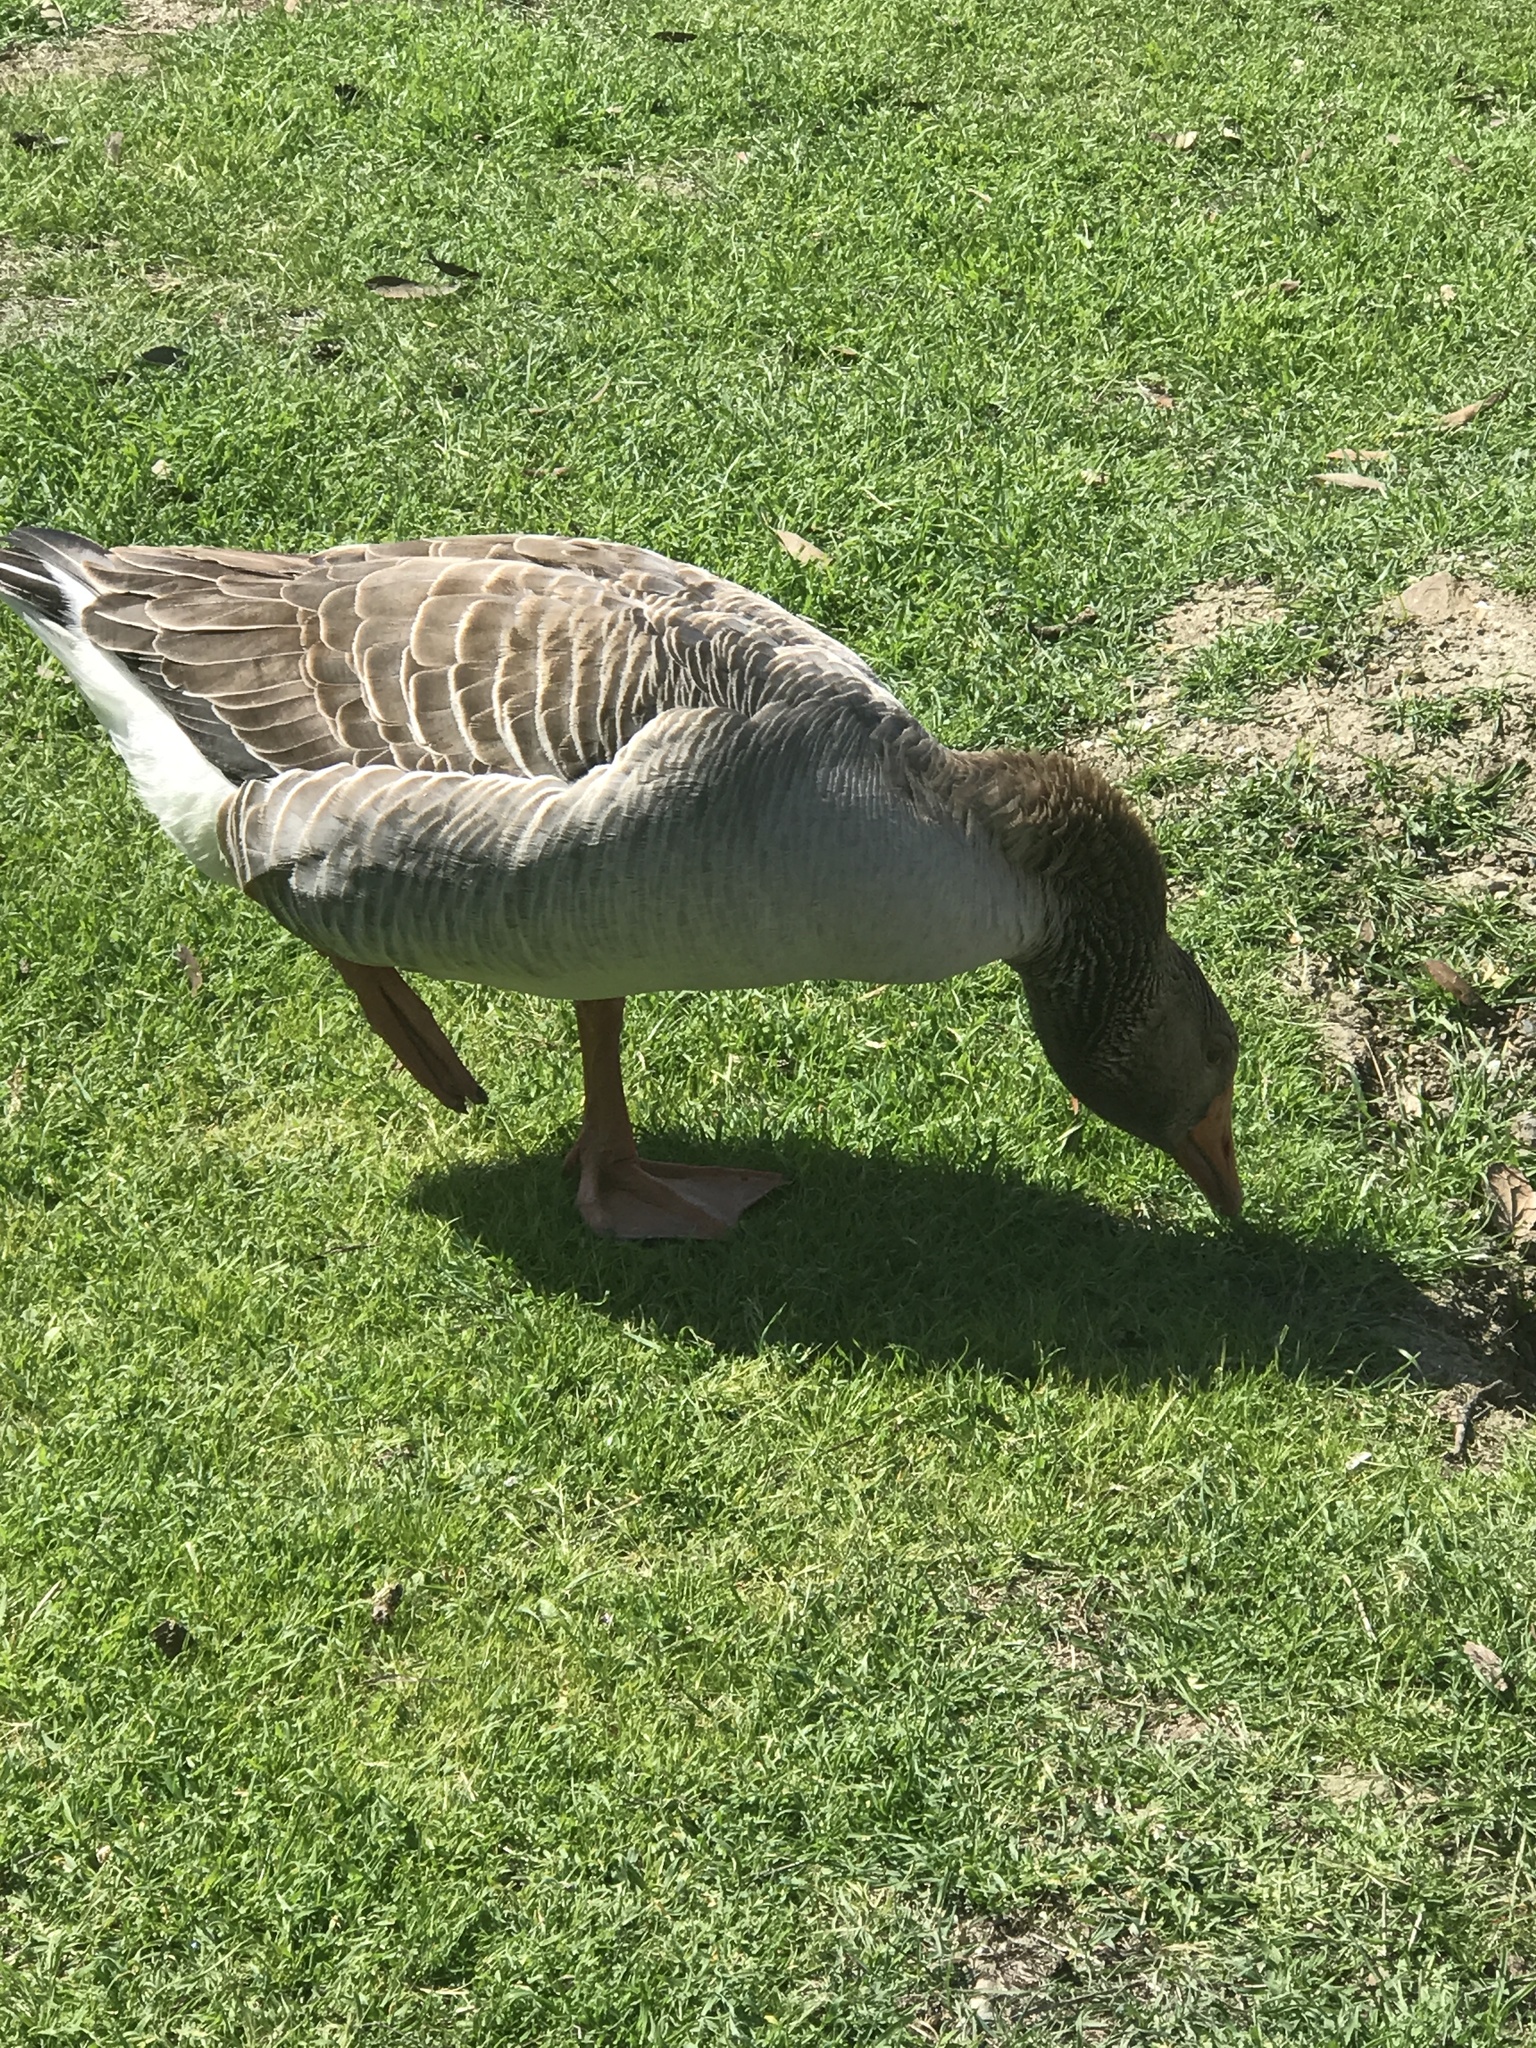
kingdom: Animalia
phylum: Chordata
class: Aves
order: Anseriformes
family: Anatidae
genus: Anser
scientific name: Anser anser
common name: Greylag goose
